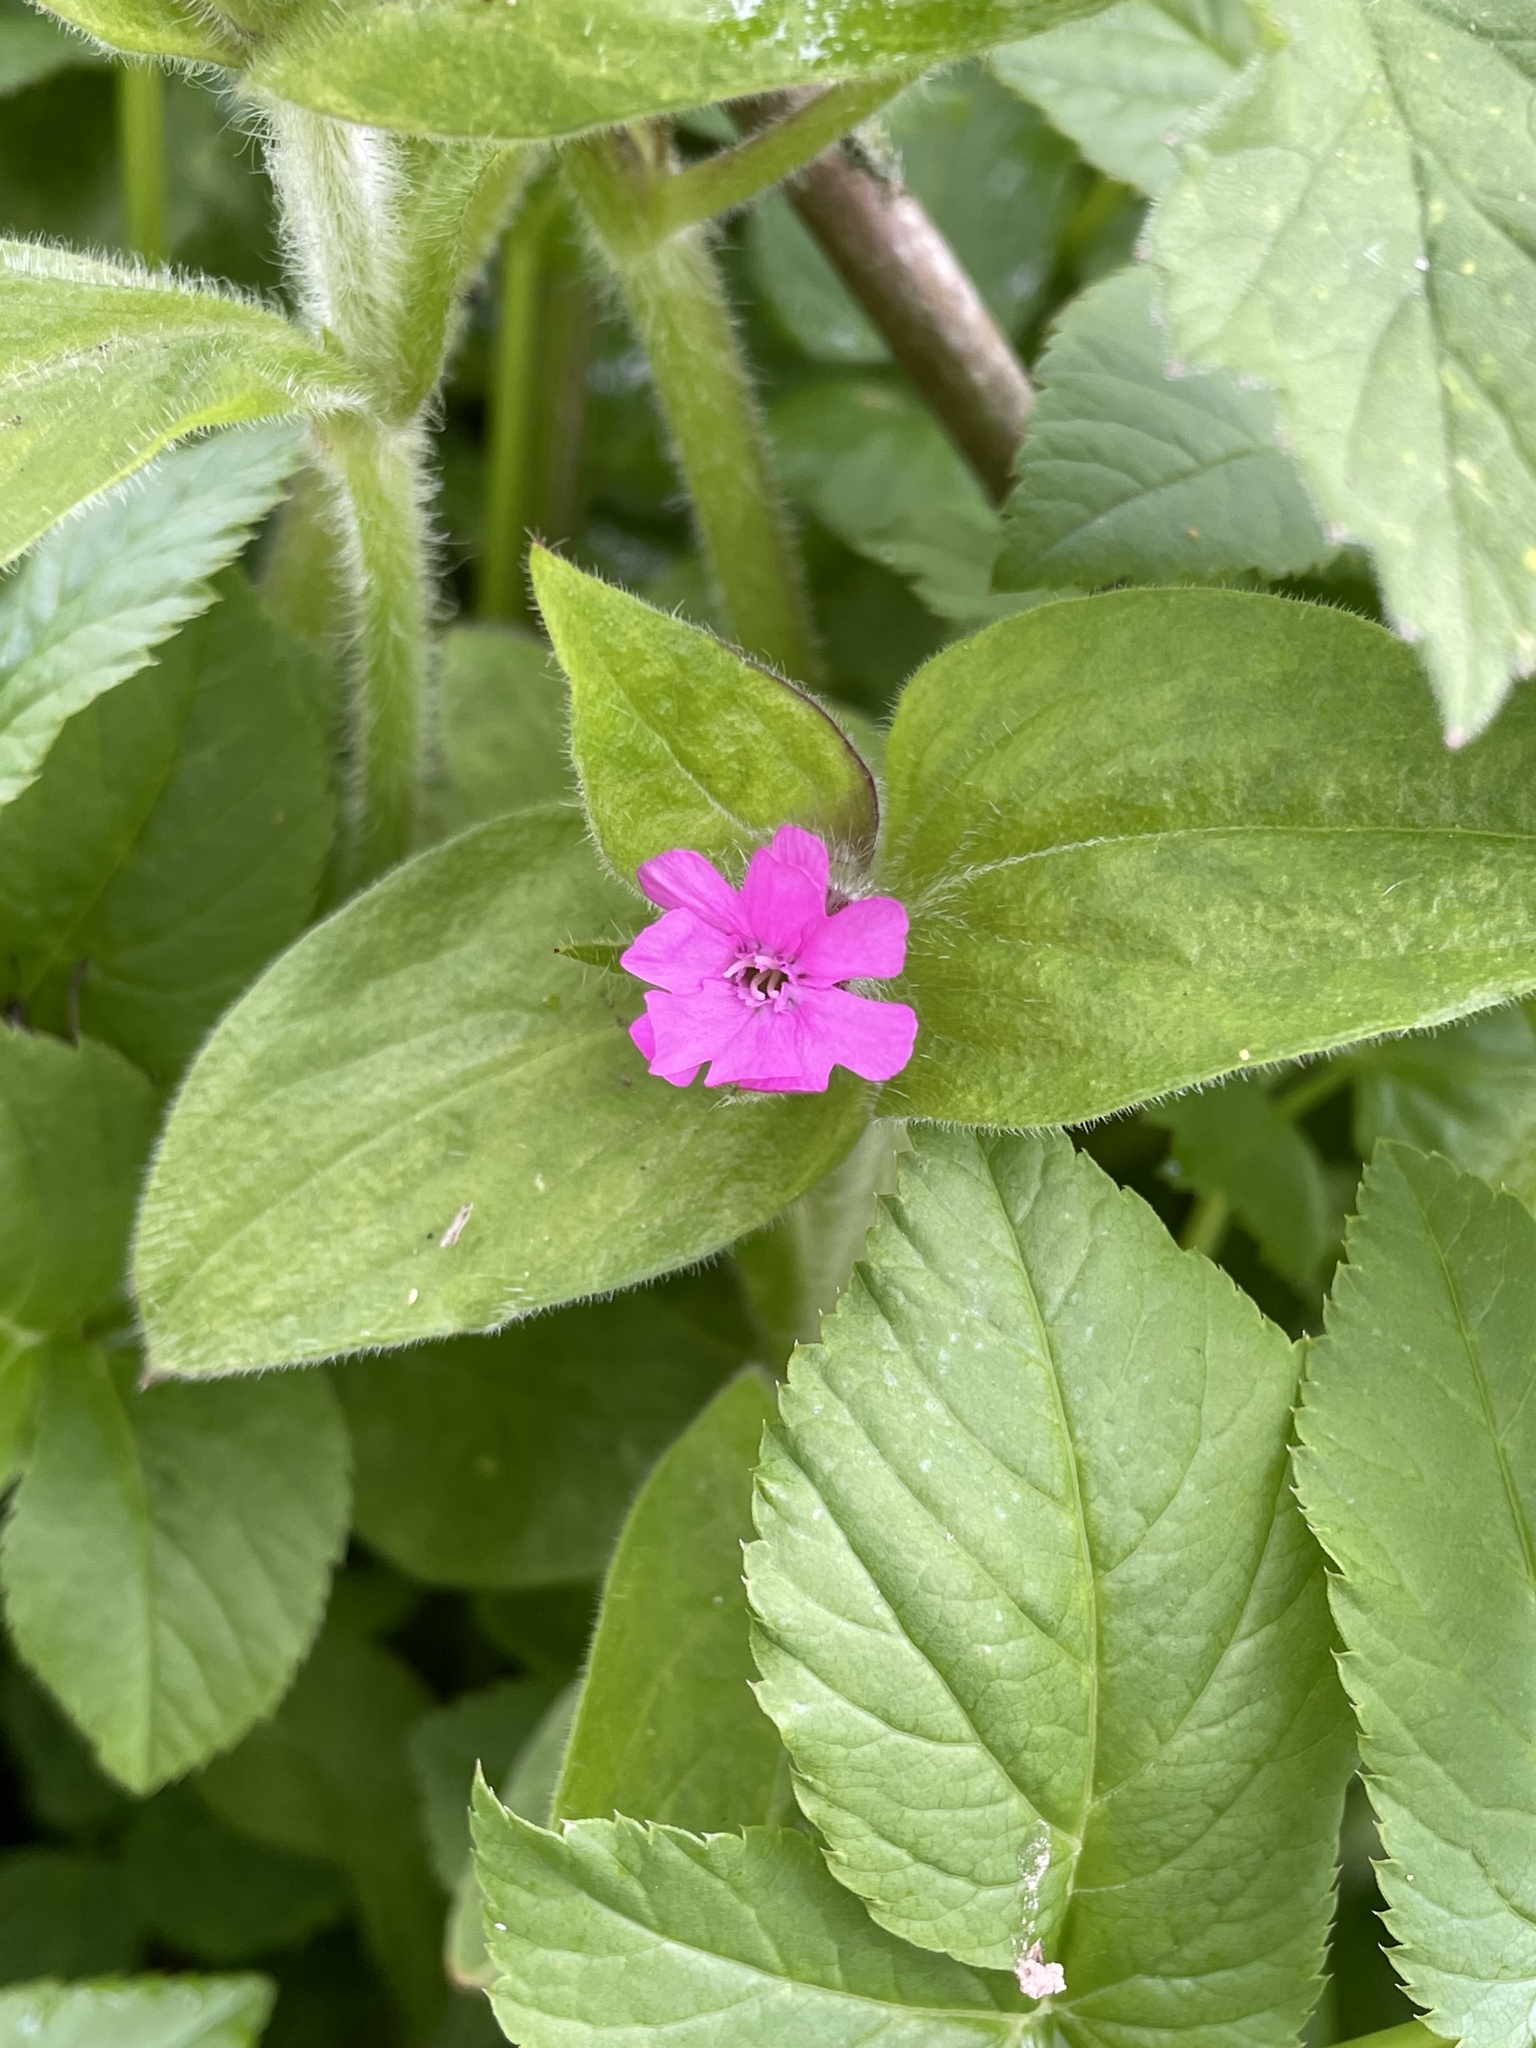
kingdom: Plantae
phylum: Tracheophyta
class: Magnoliopsida
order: Caryophyllales
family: Caryophyllaceae
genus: Silene
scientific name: Silene dioica
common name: Red campion
